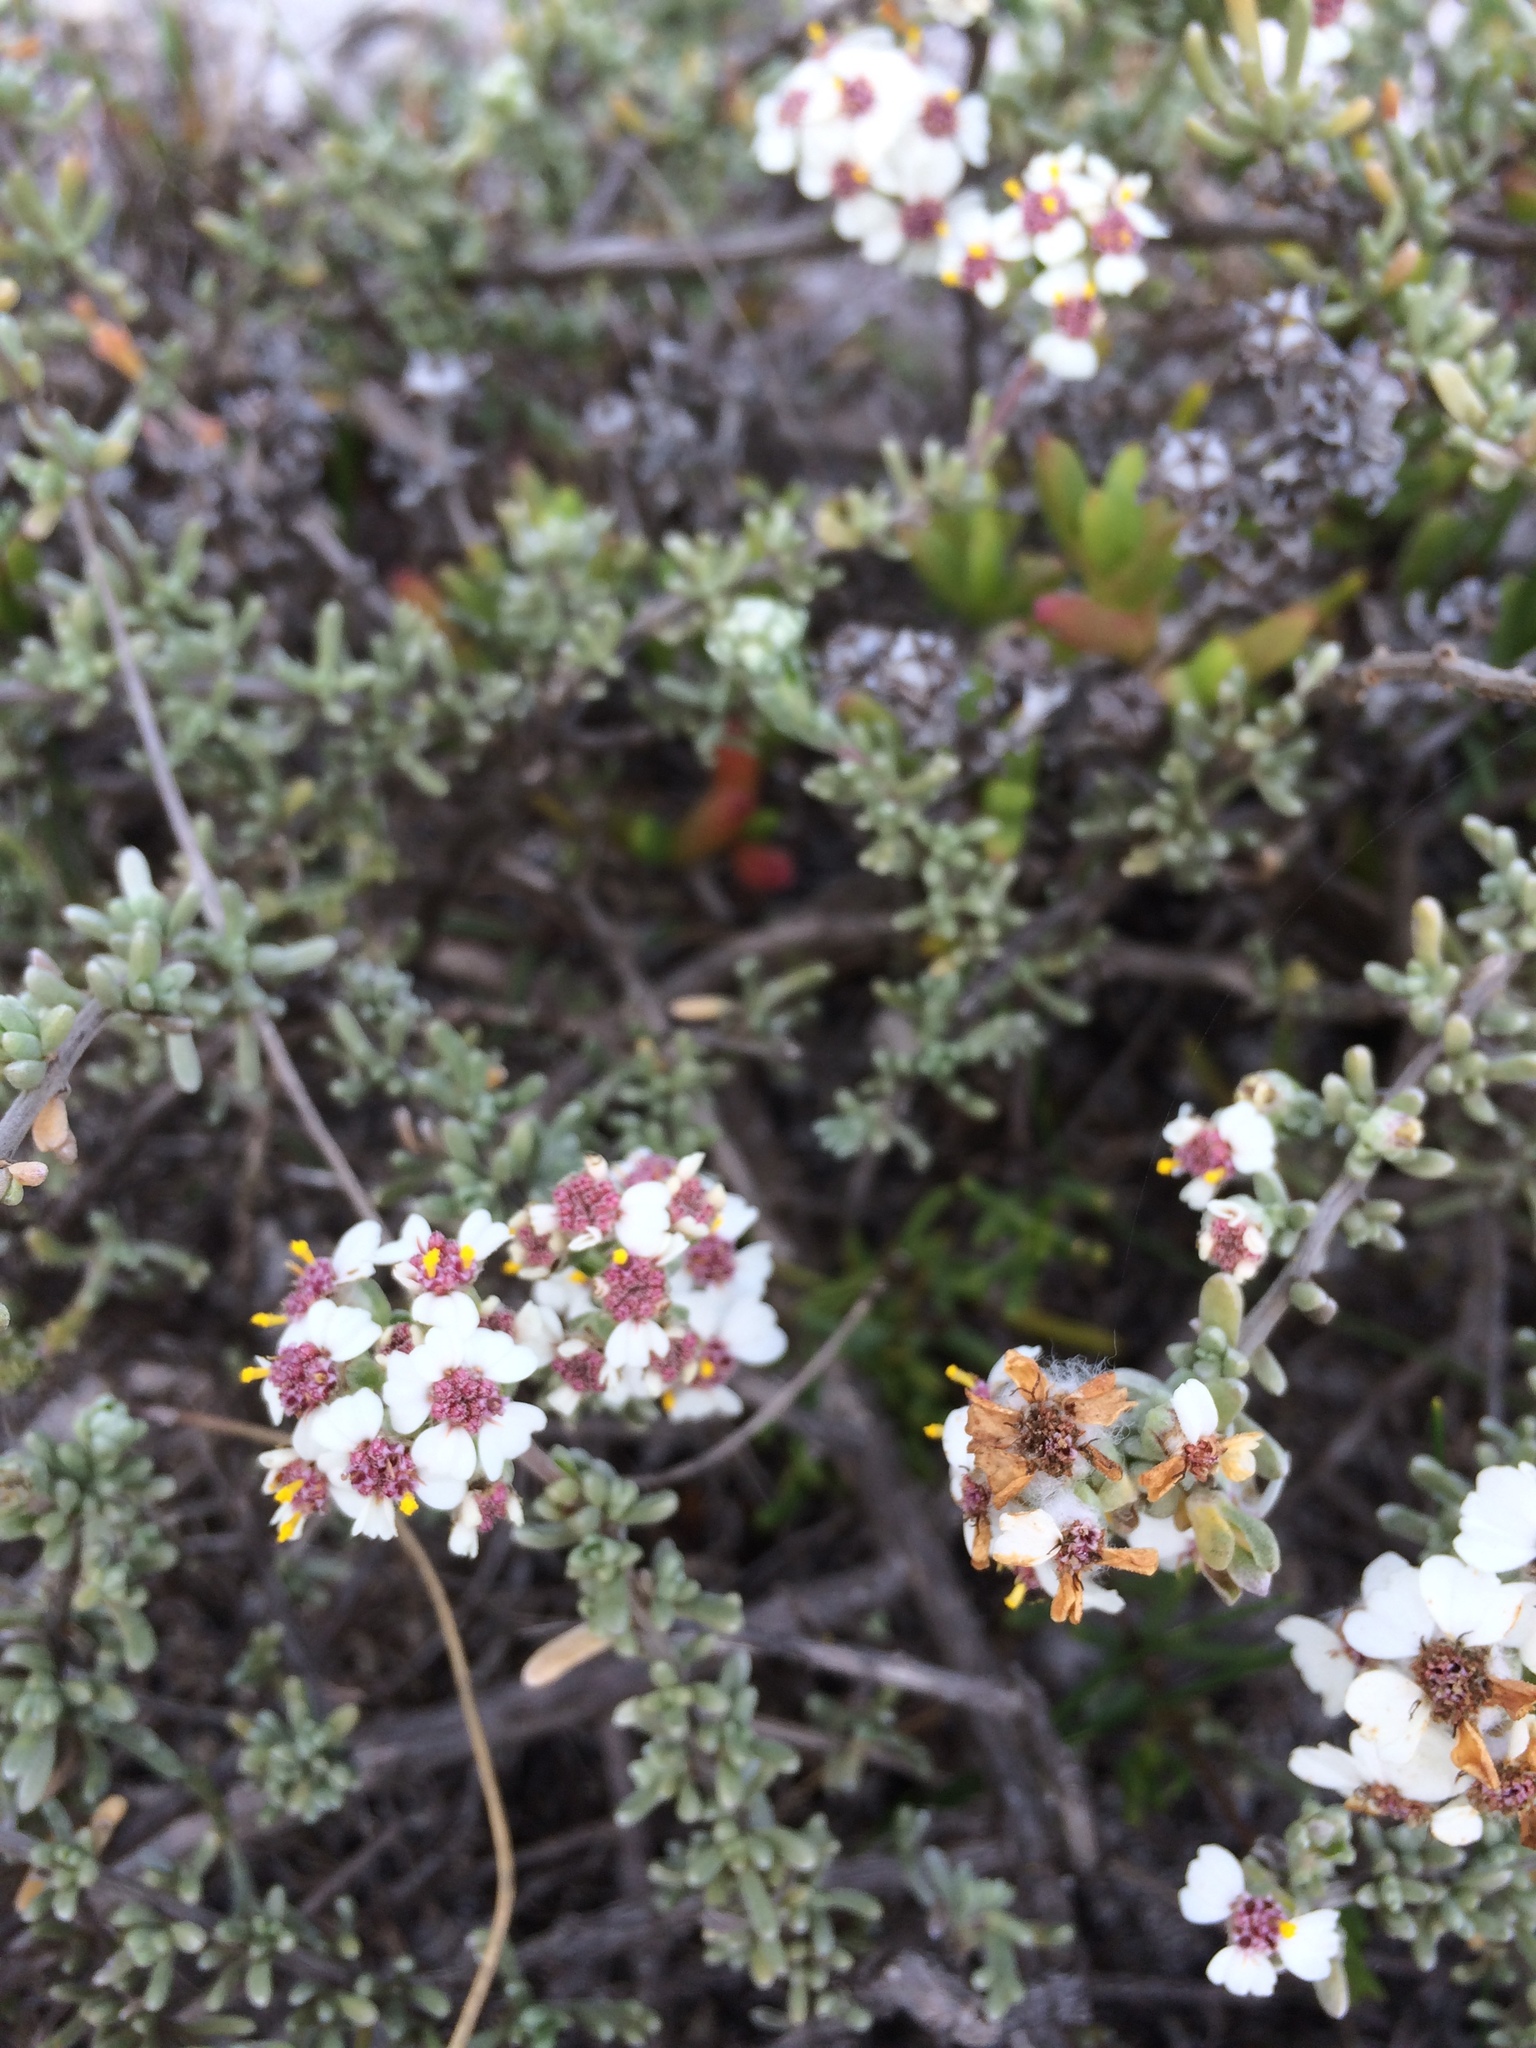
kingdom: Plantae
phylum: Tracheophyta
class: Magnoliopsida
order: Asterales
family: Asteraceae
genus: Eriocephalus
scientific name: Eriocephalus africanus
